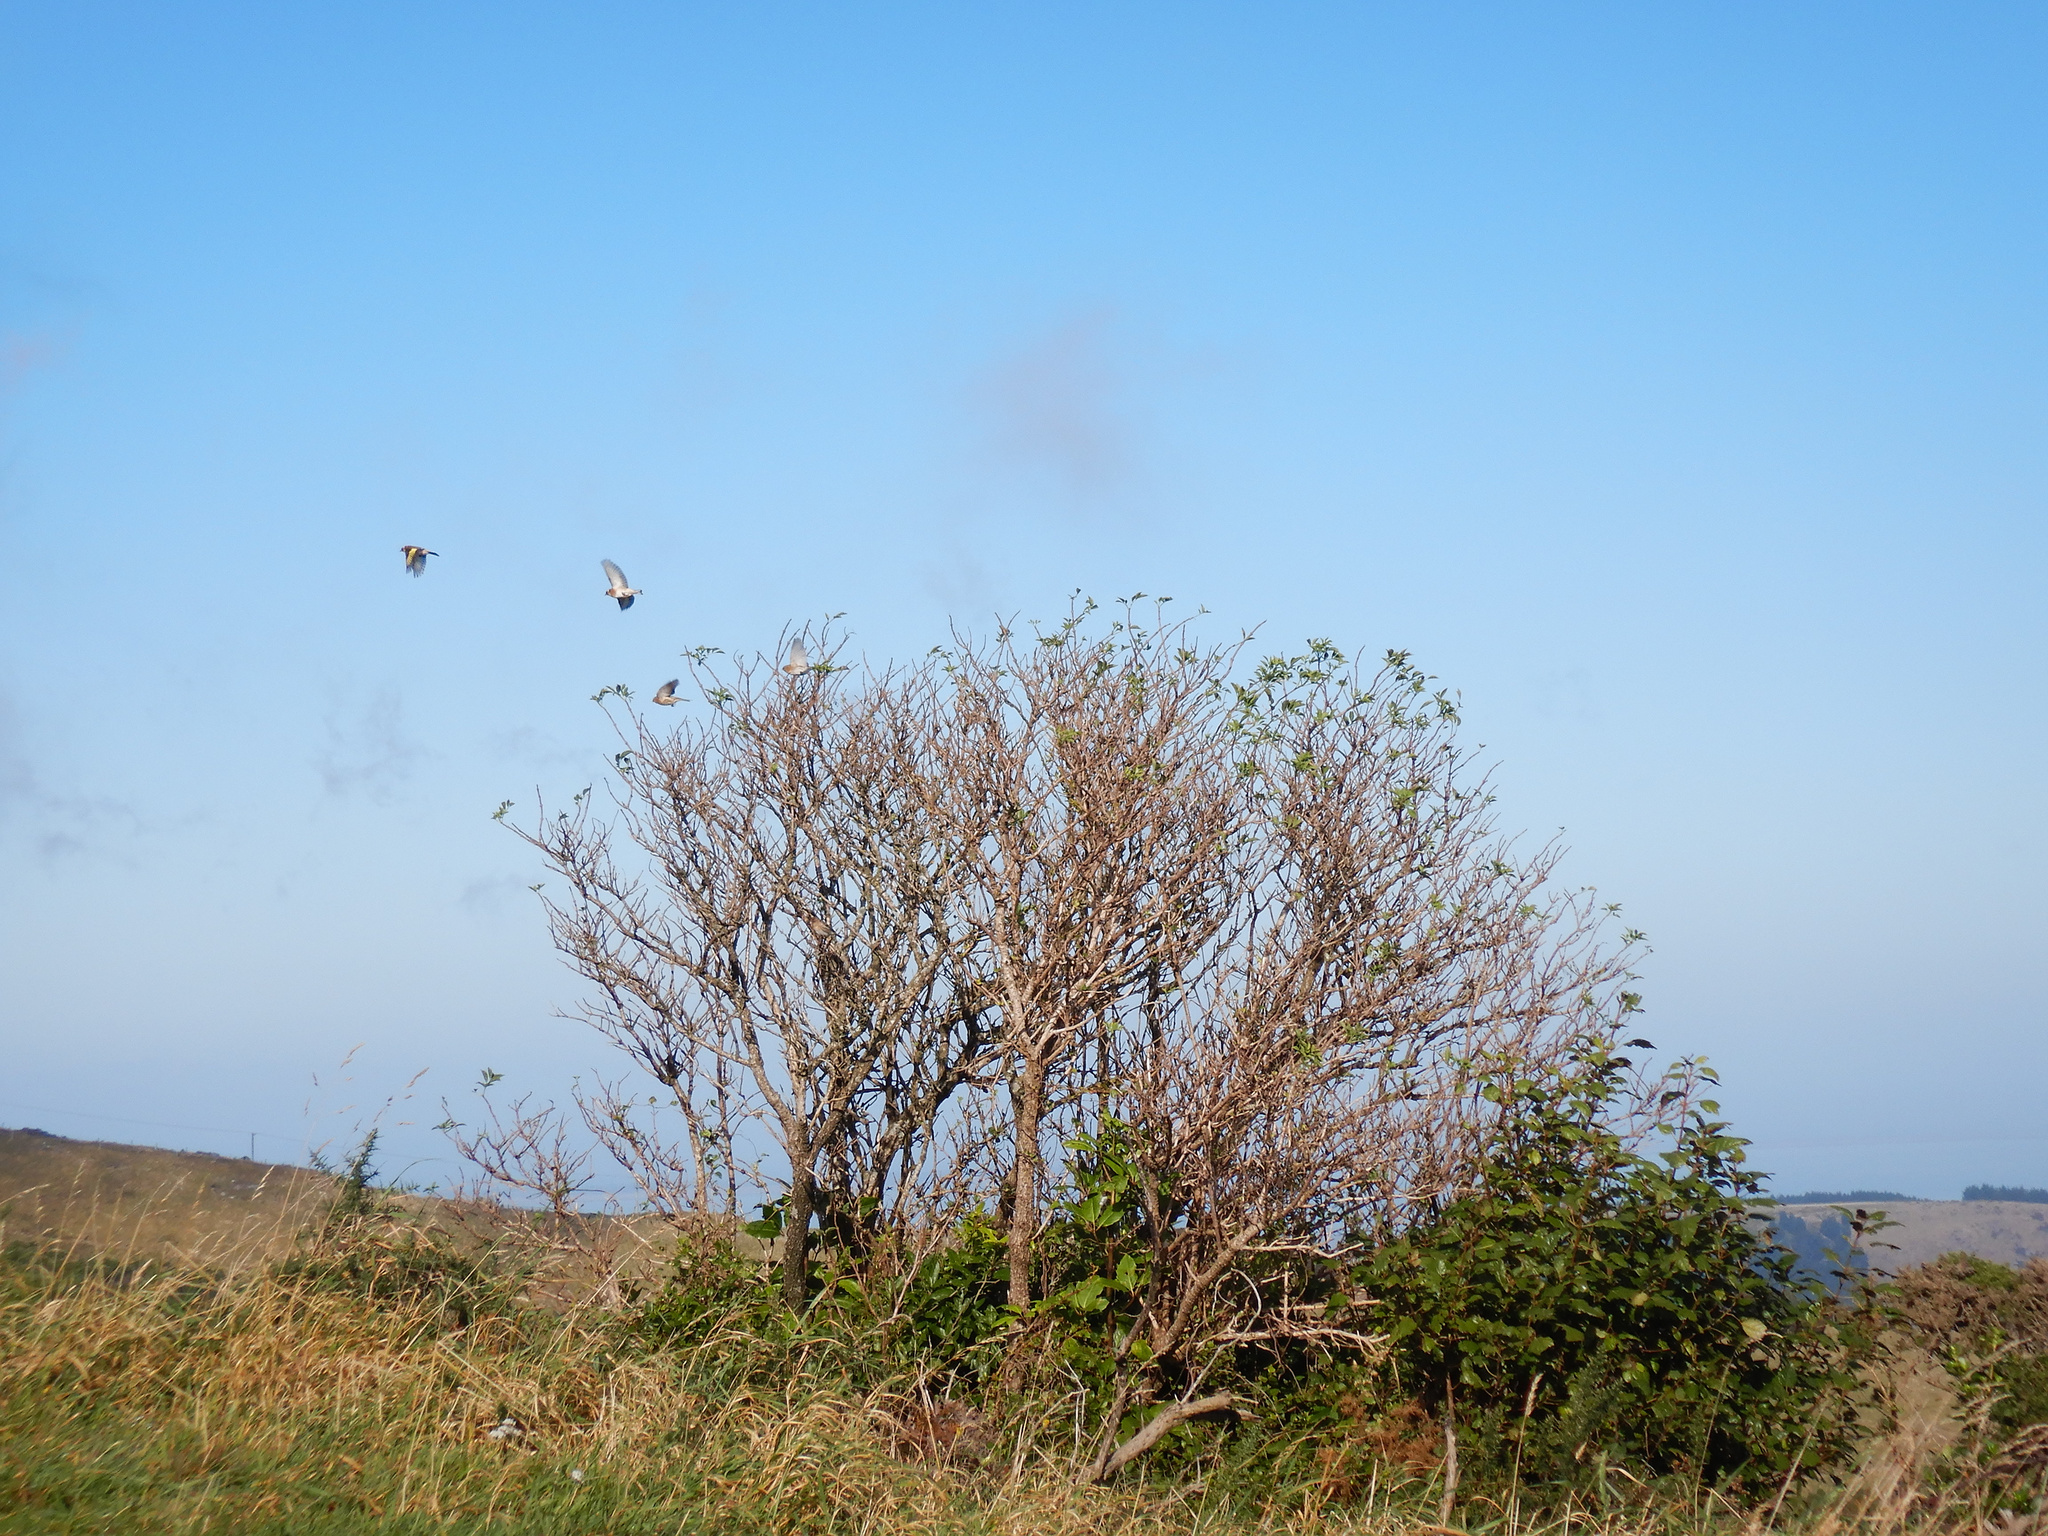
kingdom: Animalia
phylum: Chordata
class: Aves
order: Passeriformes
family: Fringillidae
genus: Carduelis
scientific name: Carduelis carduelis
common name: European goldfinch
